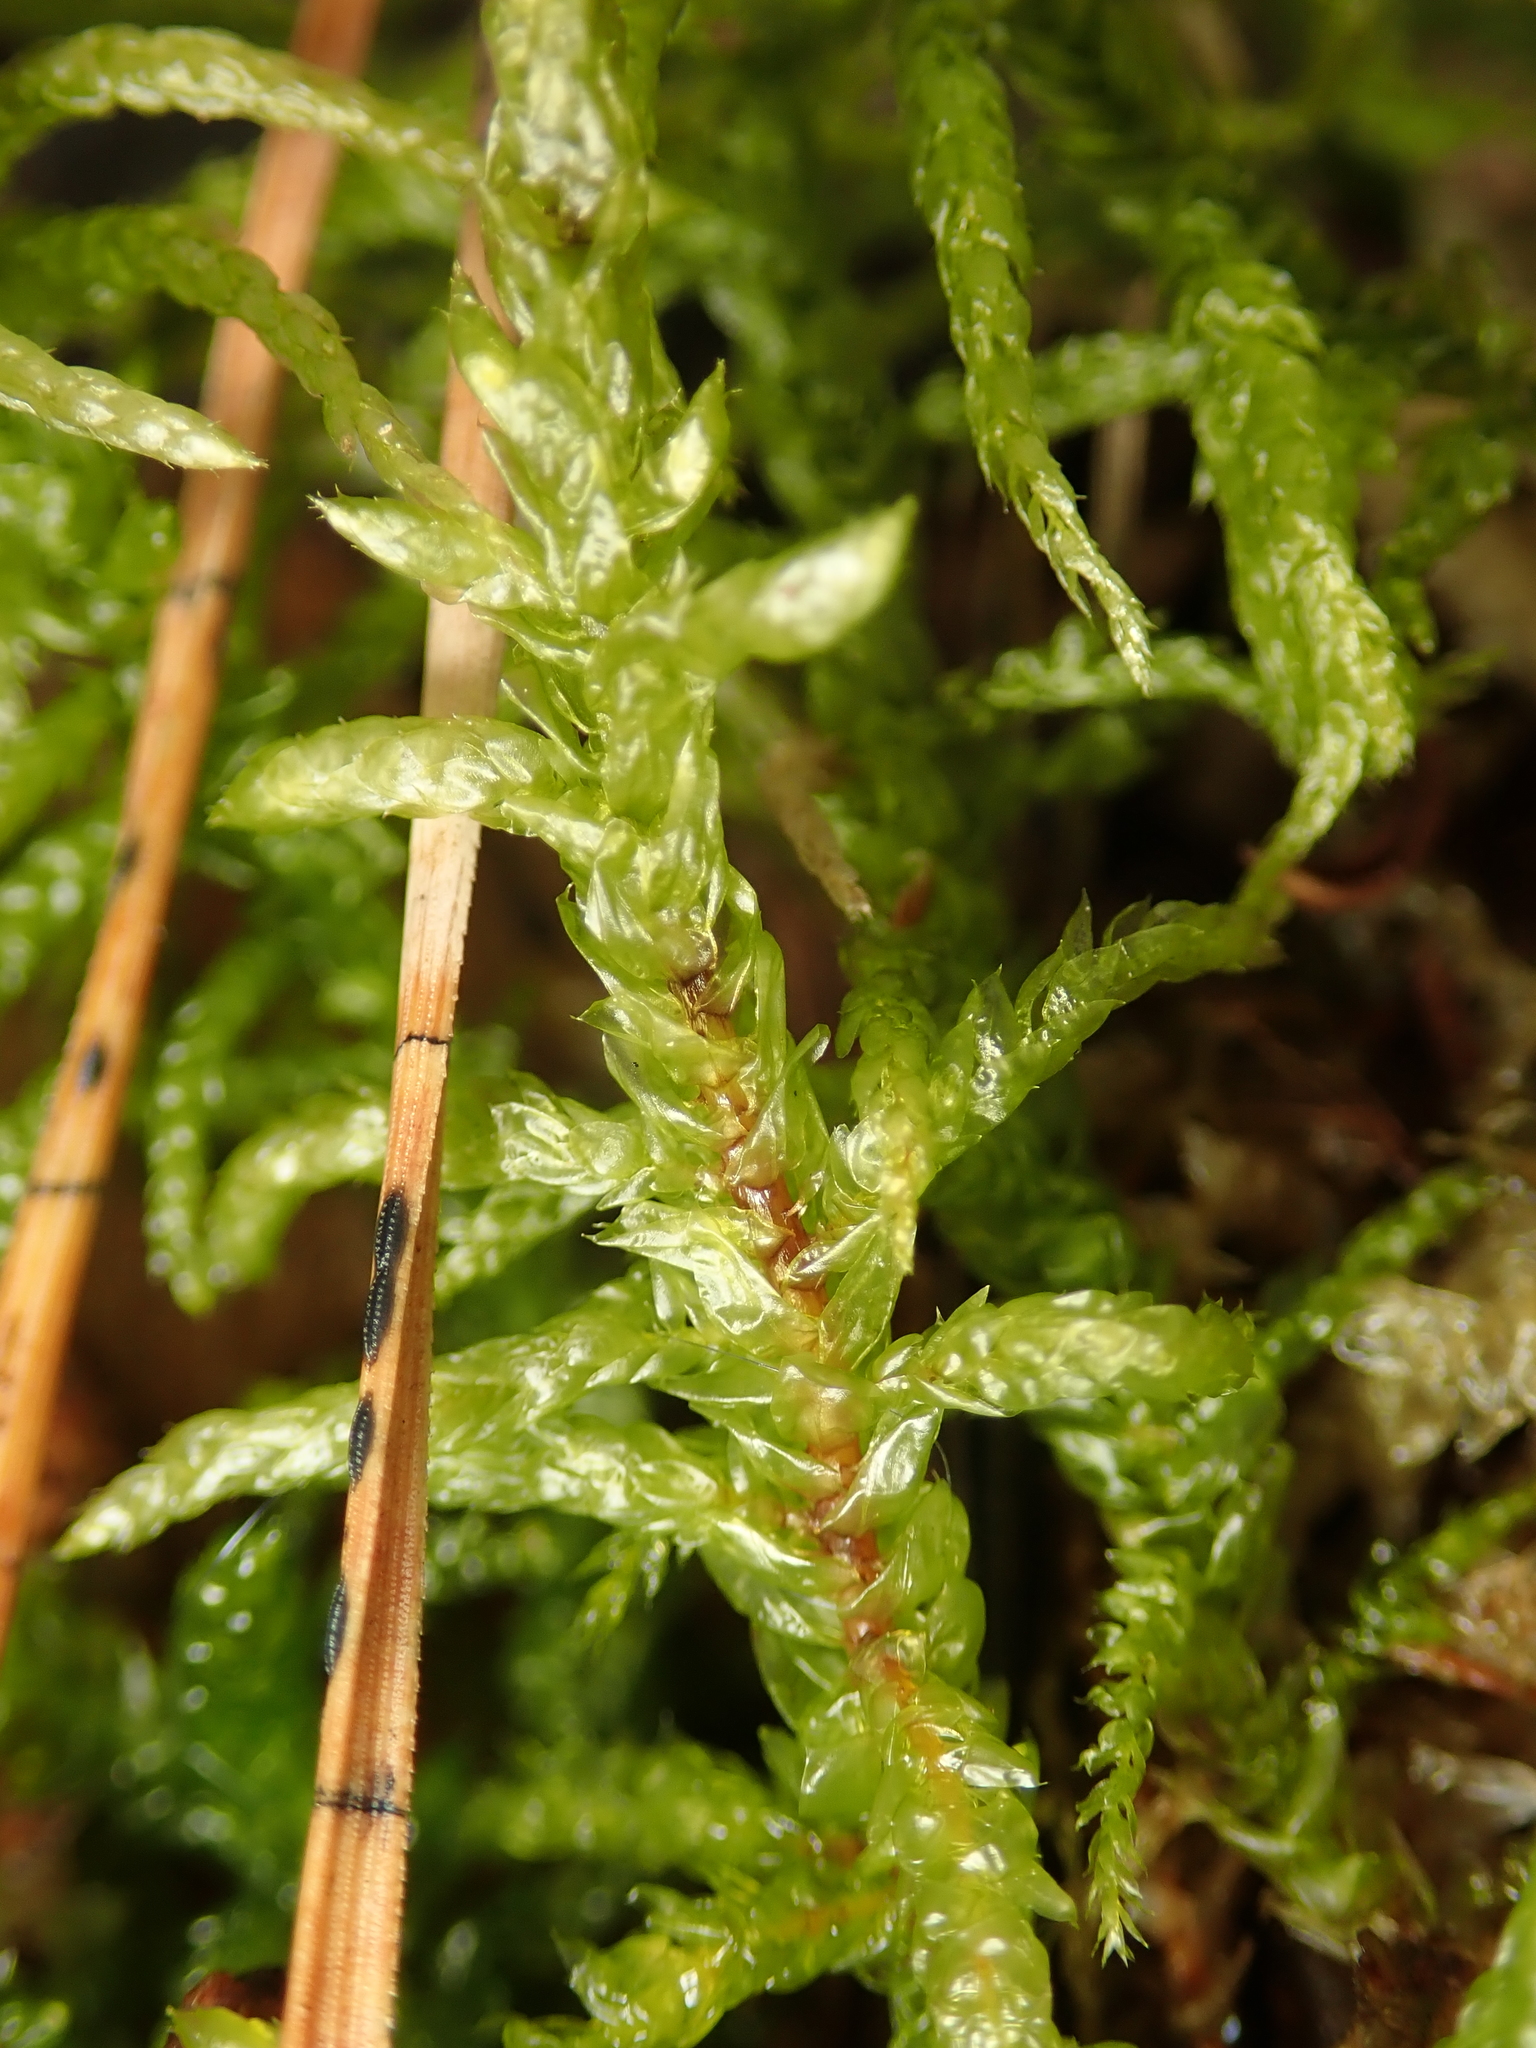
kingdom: Plantae
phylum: Bryophyta
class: Bryopsida
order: Hypnales
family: Hylocomiaceae
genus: Pleurozium
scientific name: Pleurozium schreberi
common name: Red-stemmed feather moss
